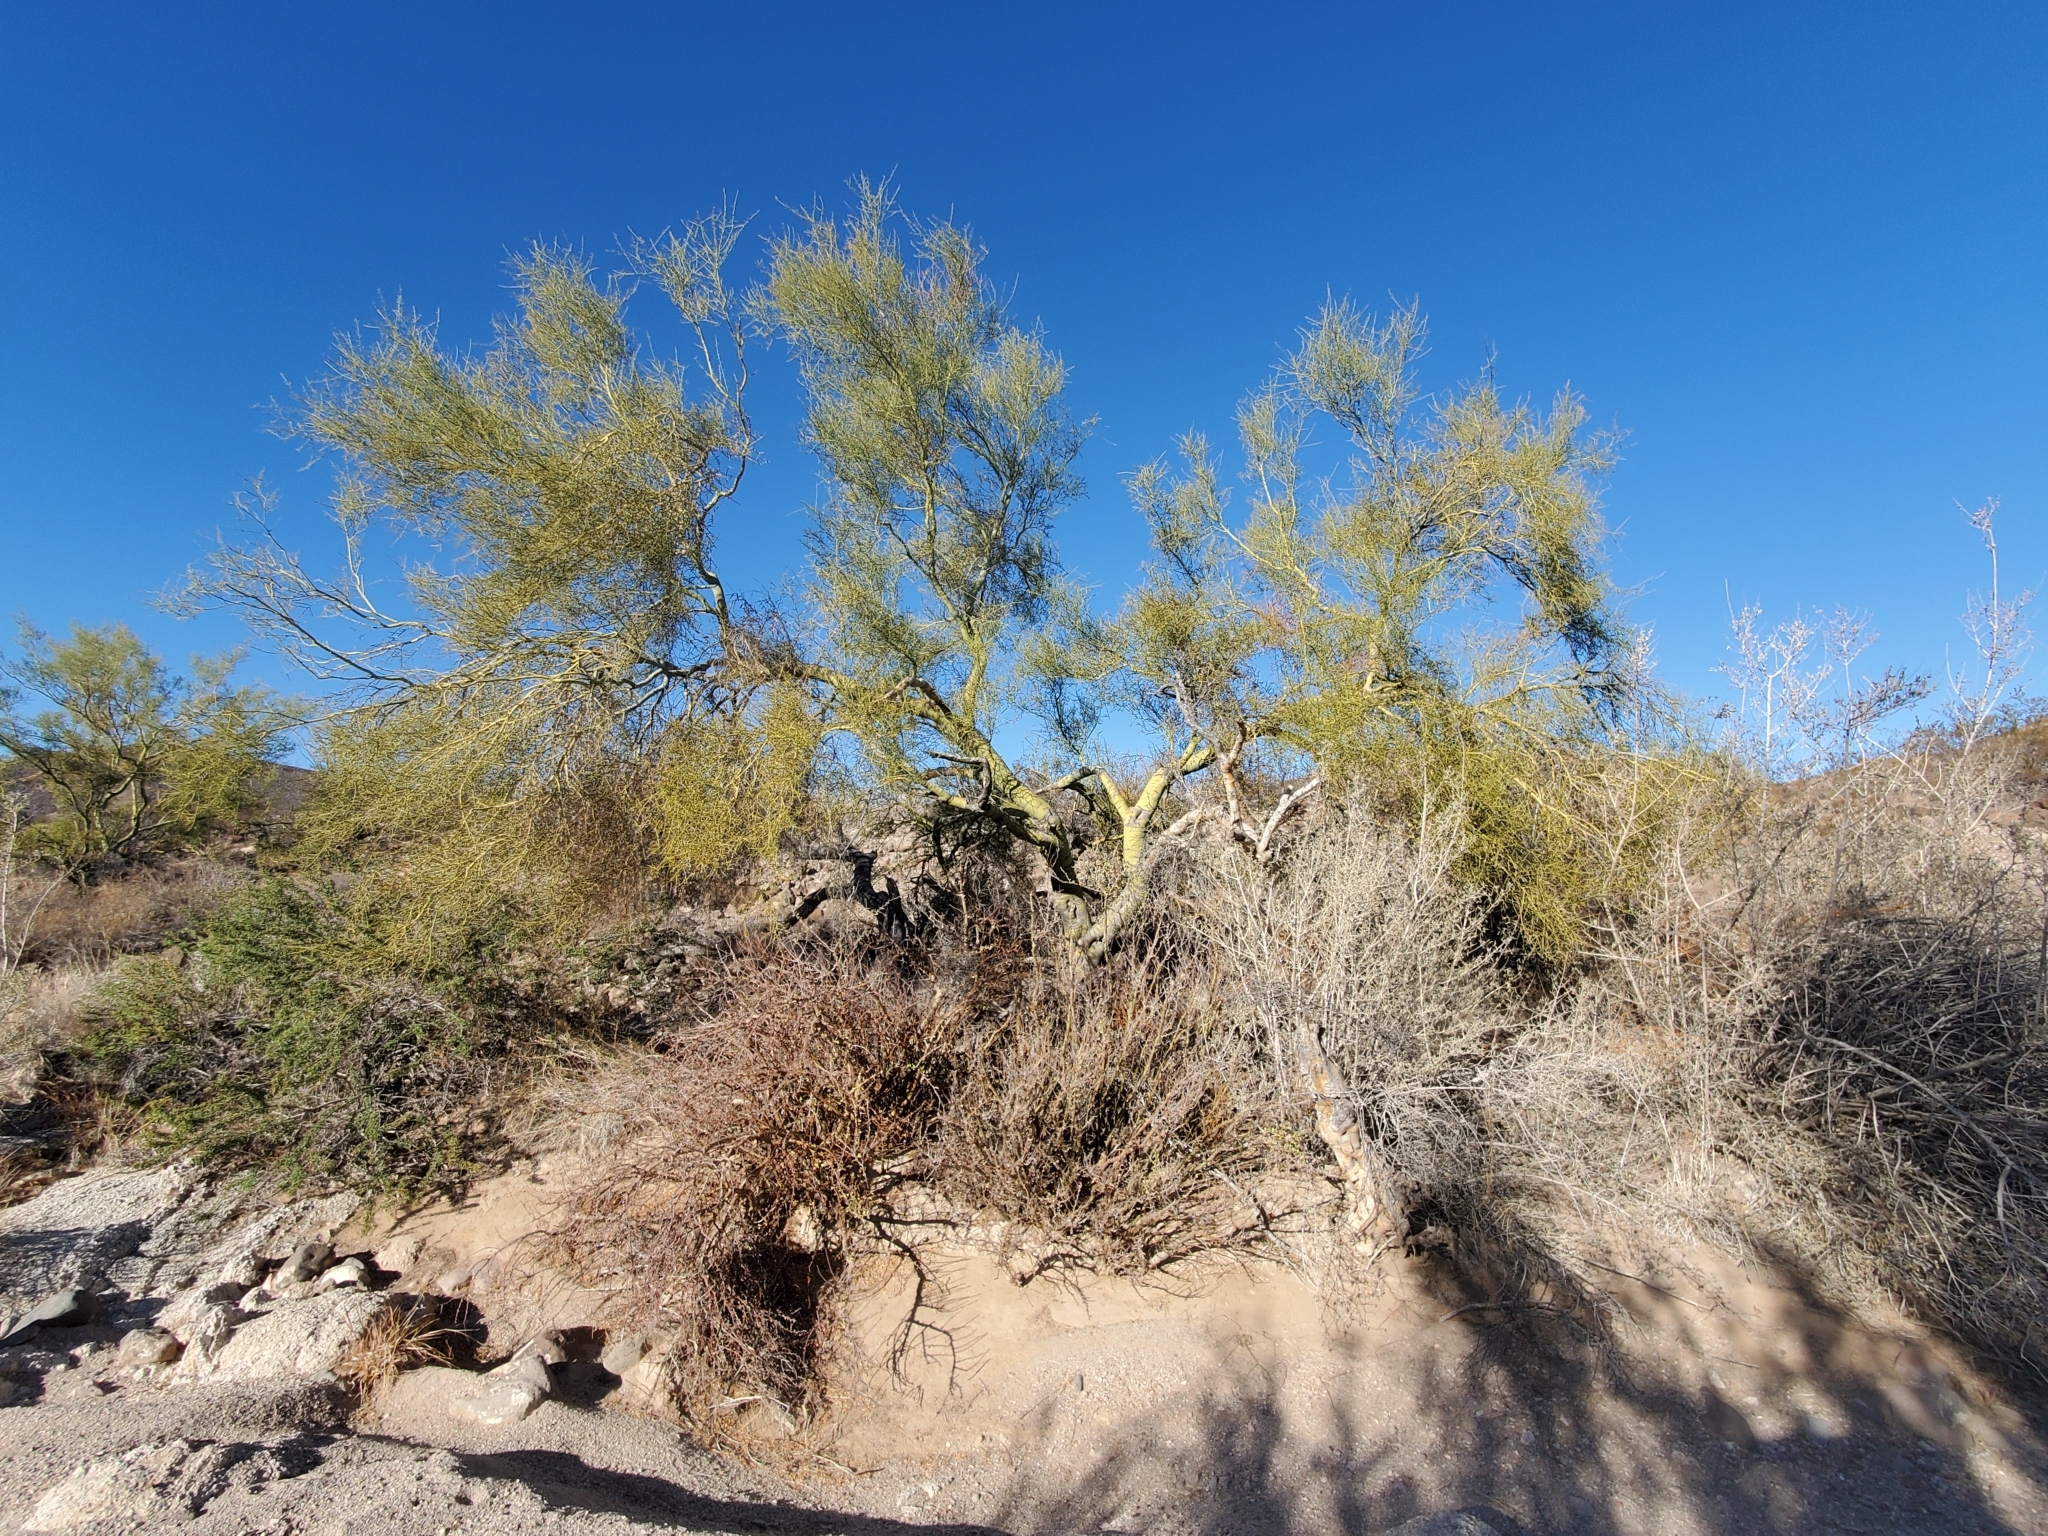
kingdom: Plantae
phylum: Tracheophyta
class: Magnoliopsida
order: Malpighiales
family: Euphorbiaceae
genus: Jatropha
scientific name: Jatropha cuneata
